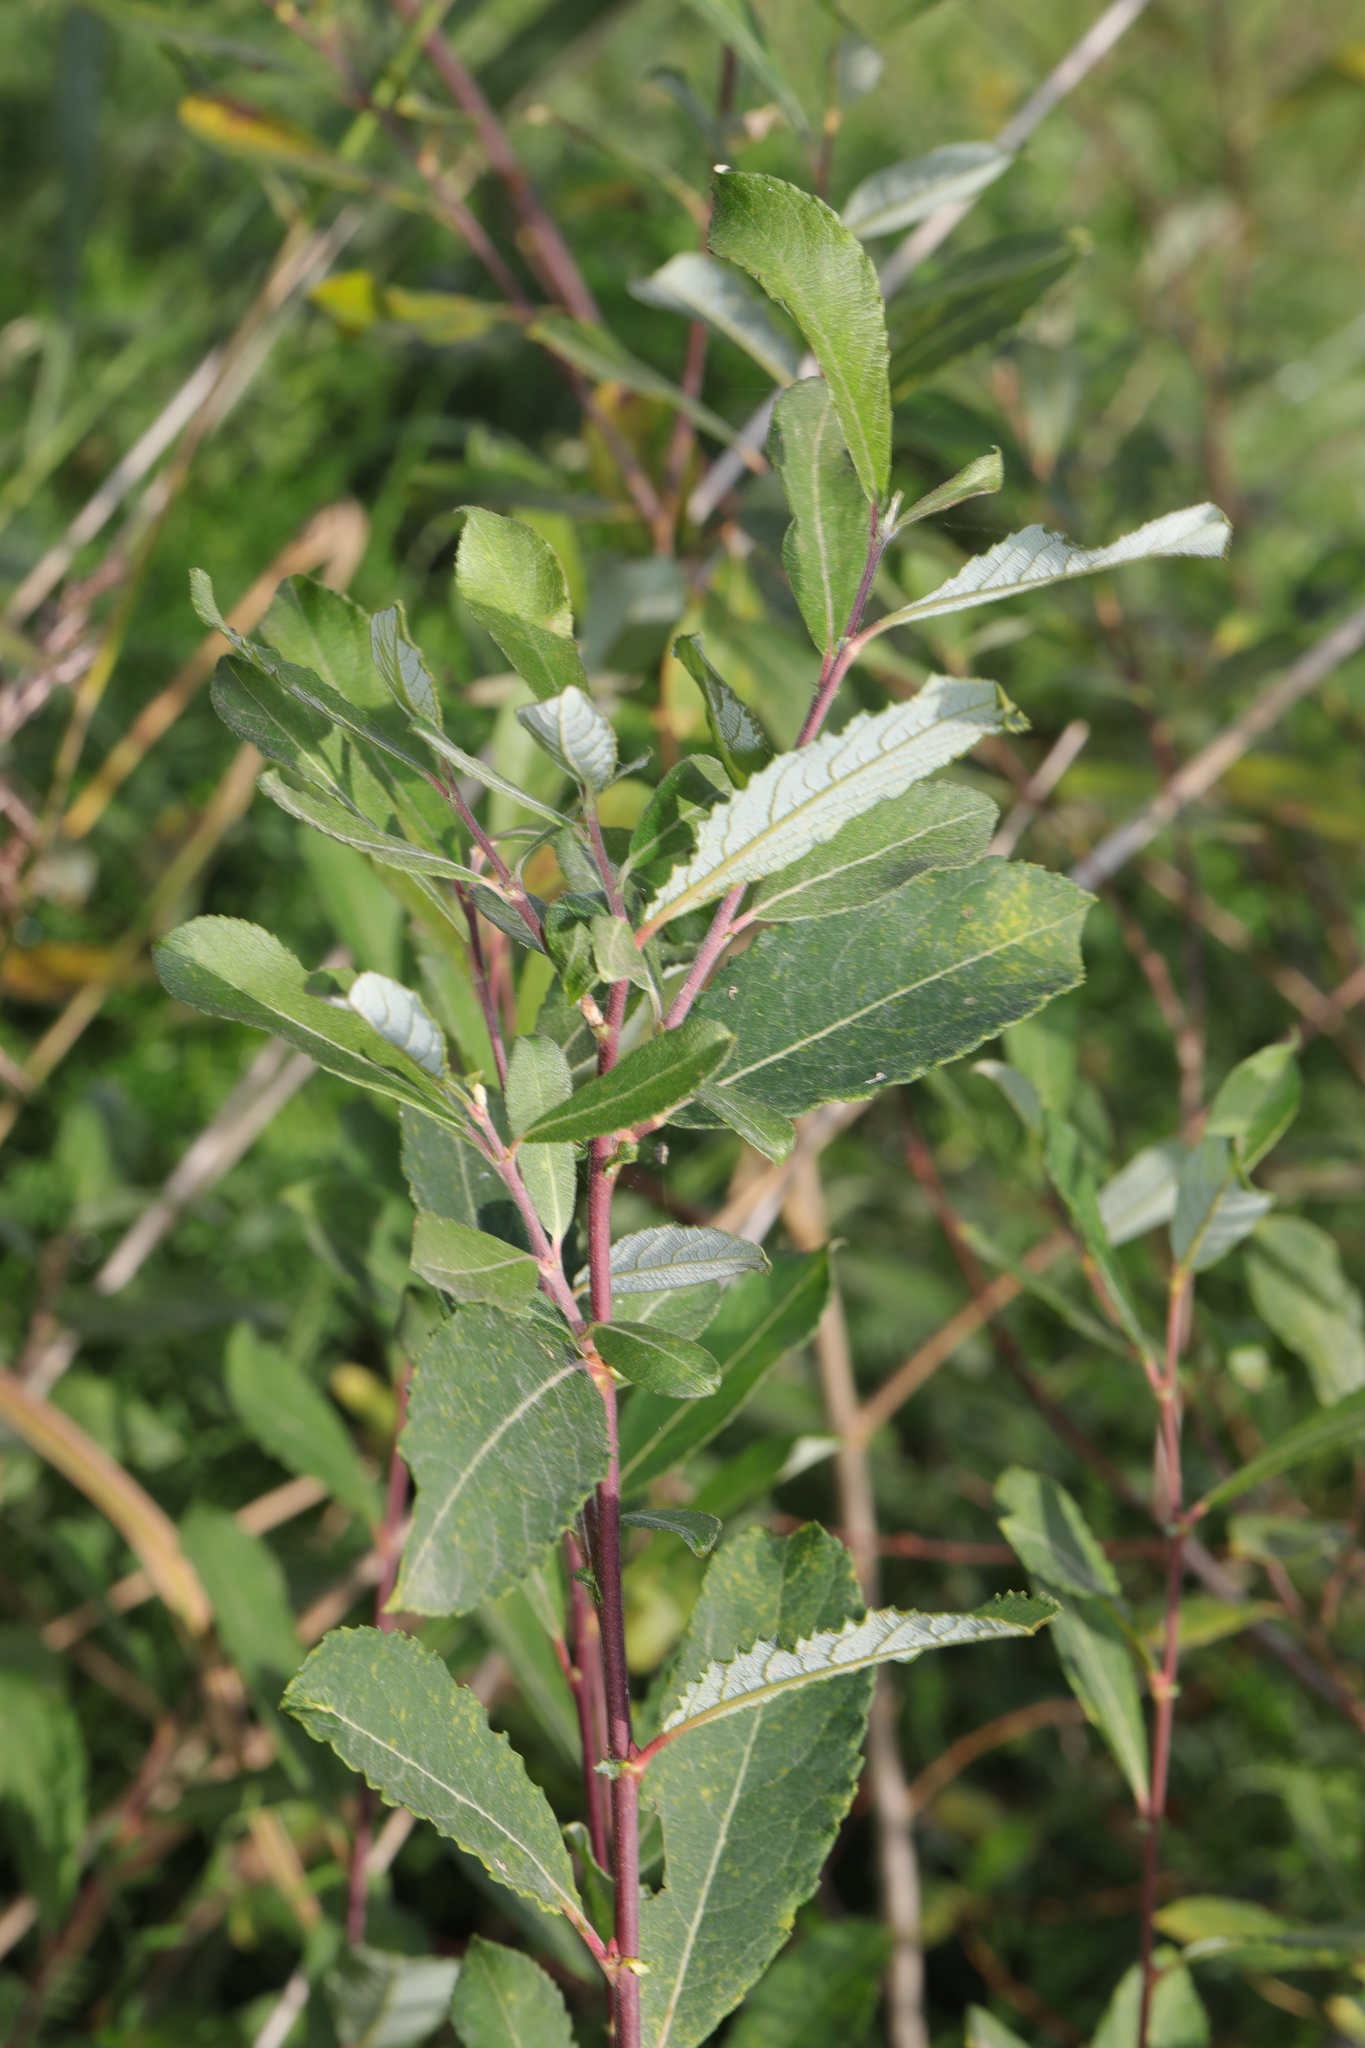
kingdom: Plantae
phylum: Tracheophyta
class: Magnoliopsida
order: Malpighiales
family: Salicaceae
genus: Salix
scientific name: Salix cinerea
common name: Common sallow
